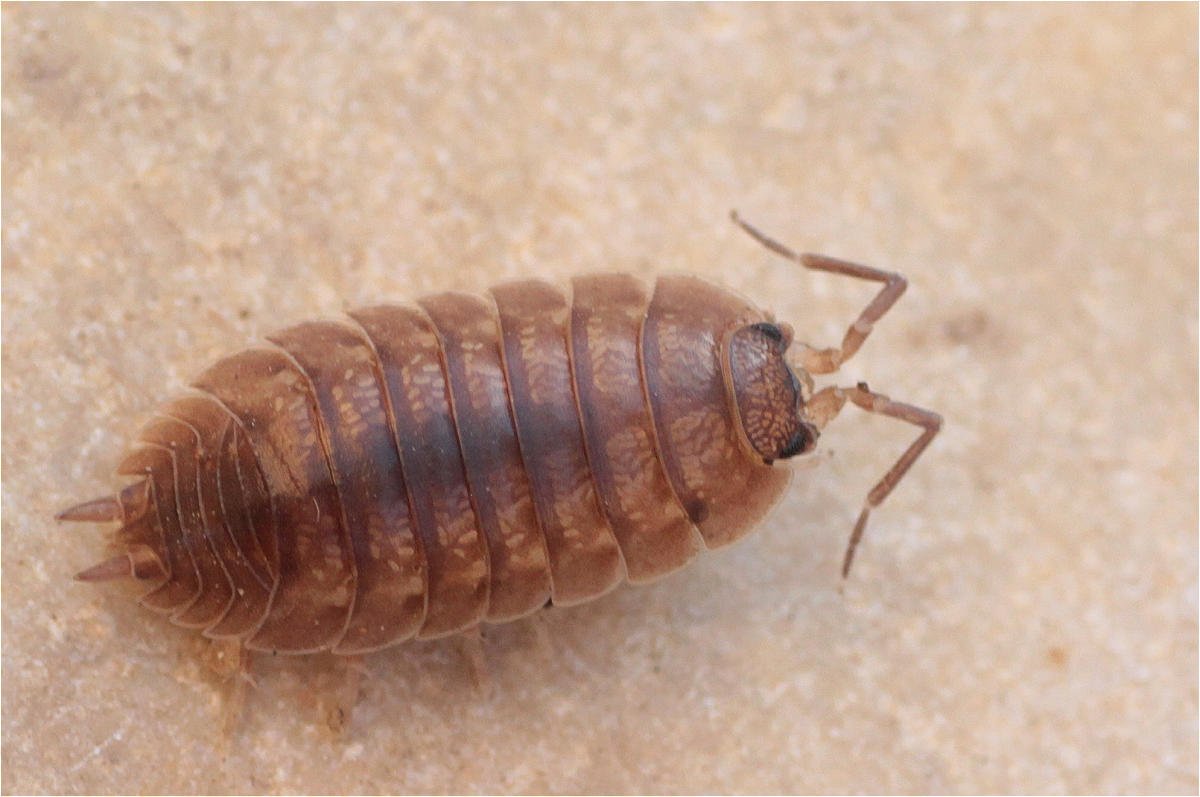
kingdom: Animalia
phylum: Arthropoda
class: Malacostraca
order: Isopoda
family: Porcellionidae
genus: Porcellio
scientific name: Porcellio laevis
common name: Swift woodlouse
